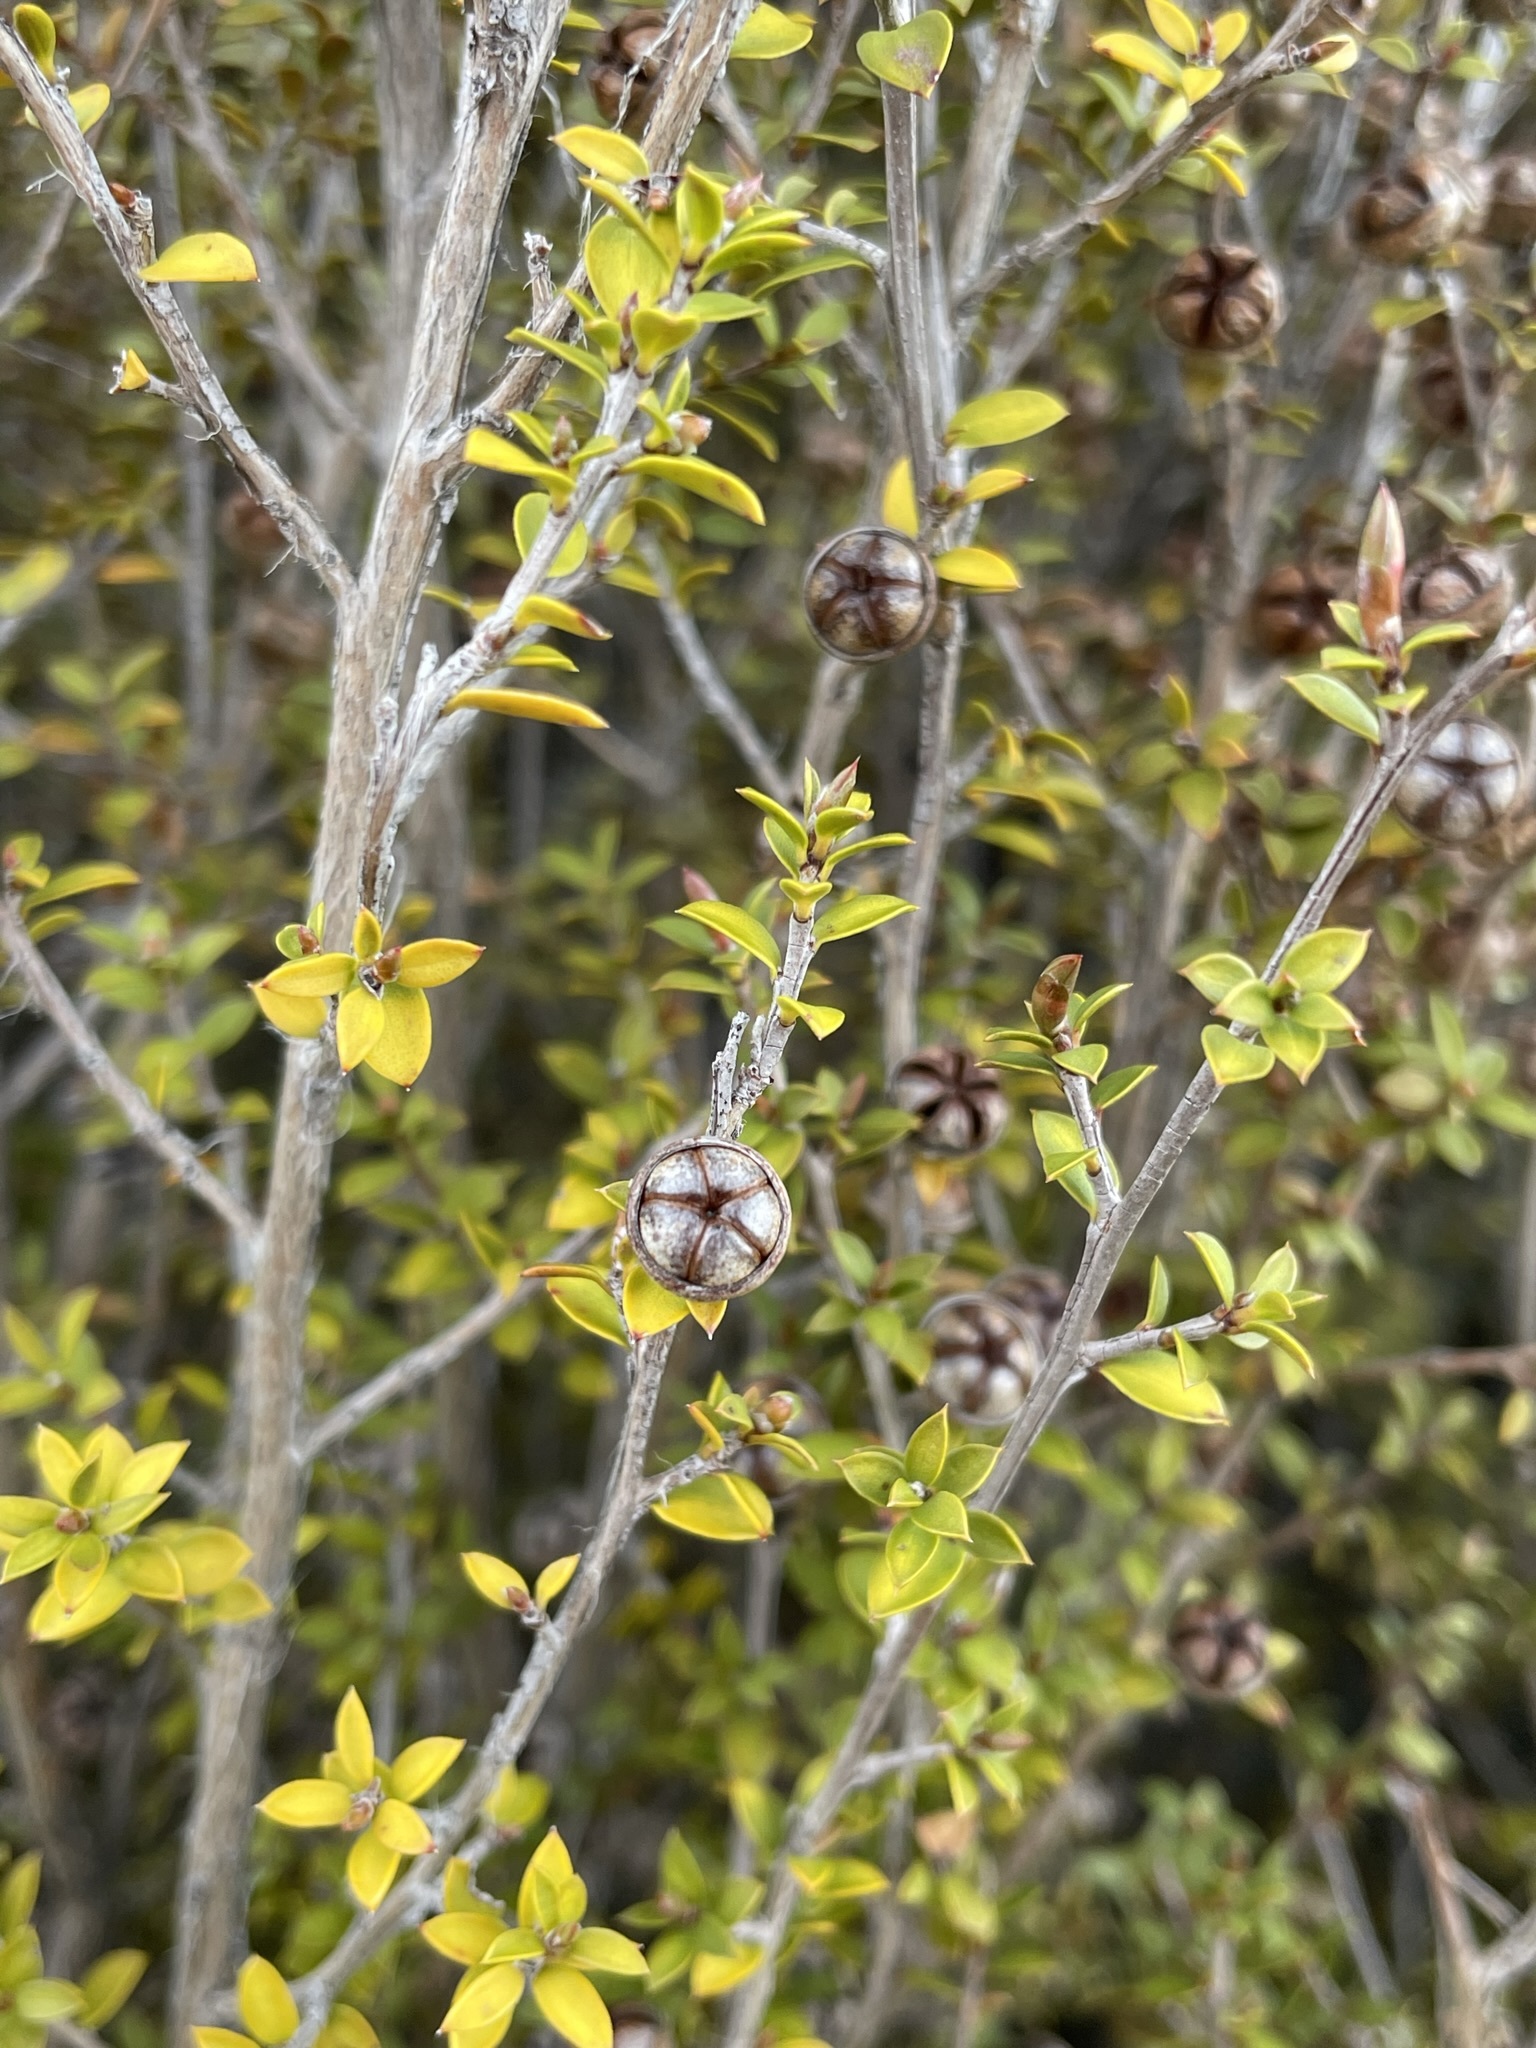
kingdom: Plantae
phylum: Tracheophyta
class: Magnoliopsida
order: Myrtales
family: Myrtaceae
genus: Leptospermum
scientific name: Leptospermum scoparium
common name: Broom tea-tree
